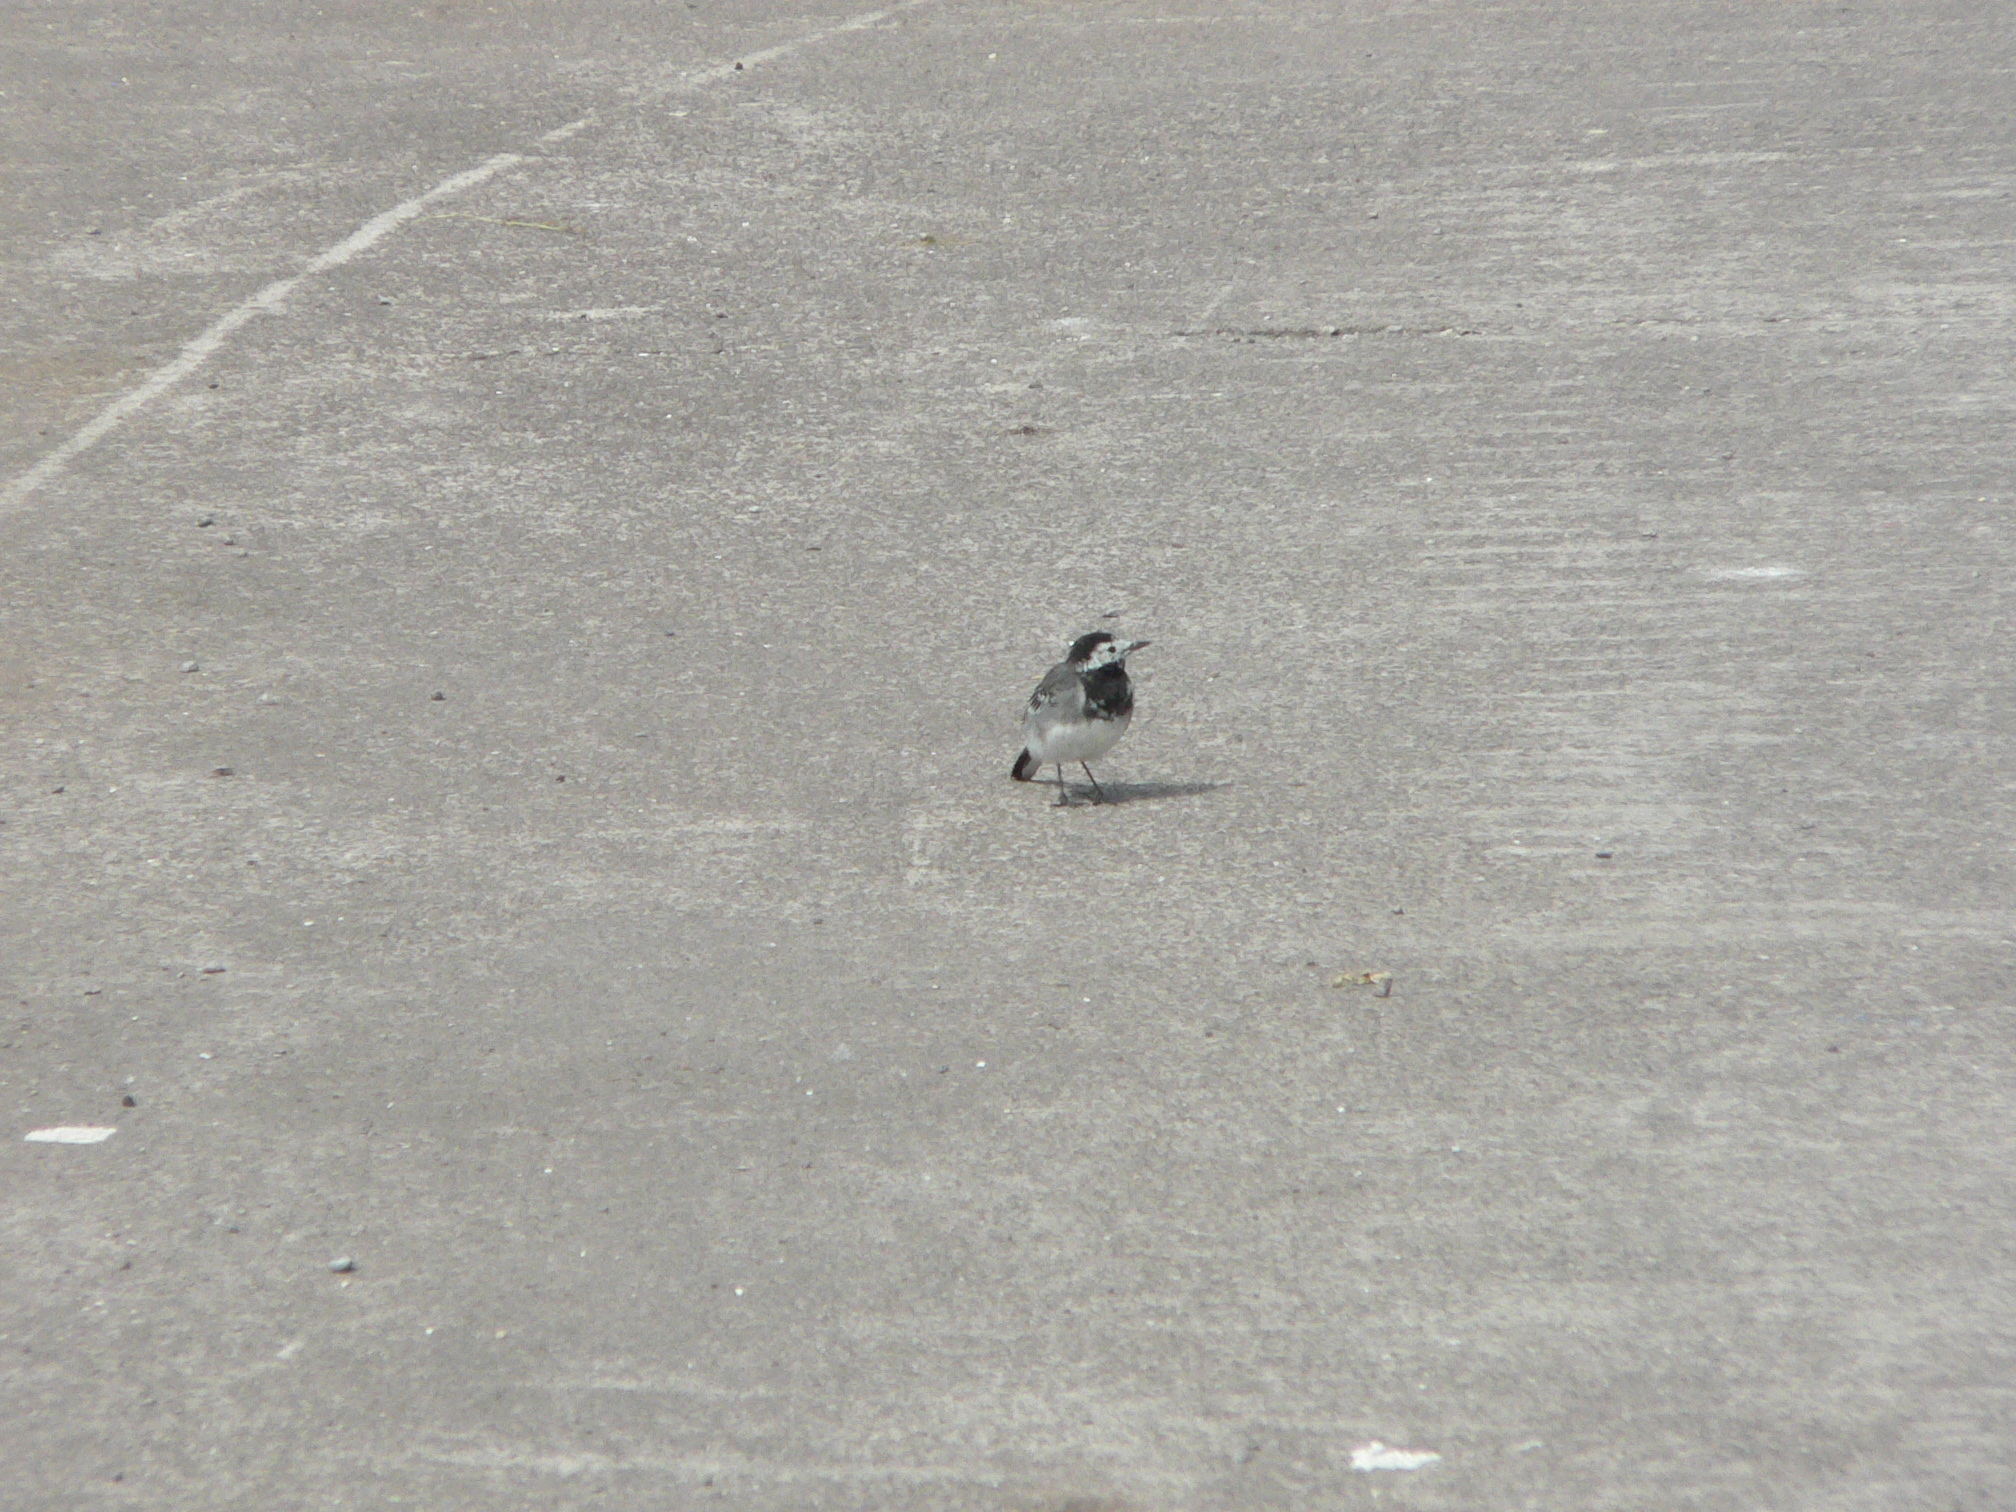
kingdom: Animalia
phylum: Chordata
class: Aves
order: Passeriformes
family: Motacillidae
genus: Motacilla
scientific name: Motacilla alba
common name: White wagtail
